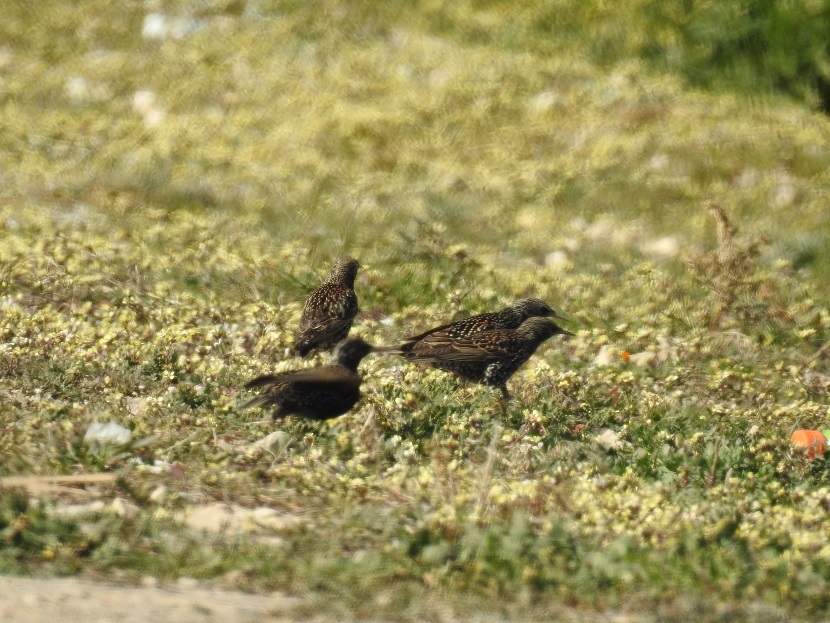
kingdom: Animalia
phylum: Chordata
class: Aves
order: Passeriformes
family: Sturnidae
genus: Sturnus
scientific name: Sturnus vulgaris
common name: Common starling
